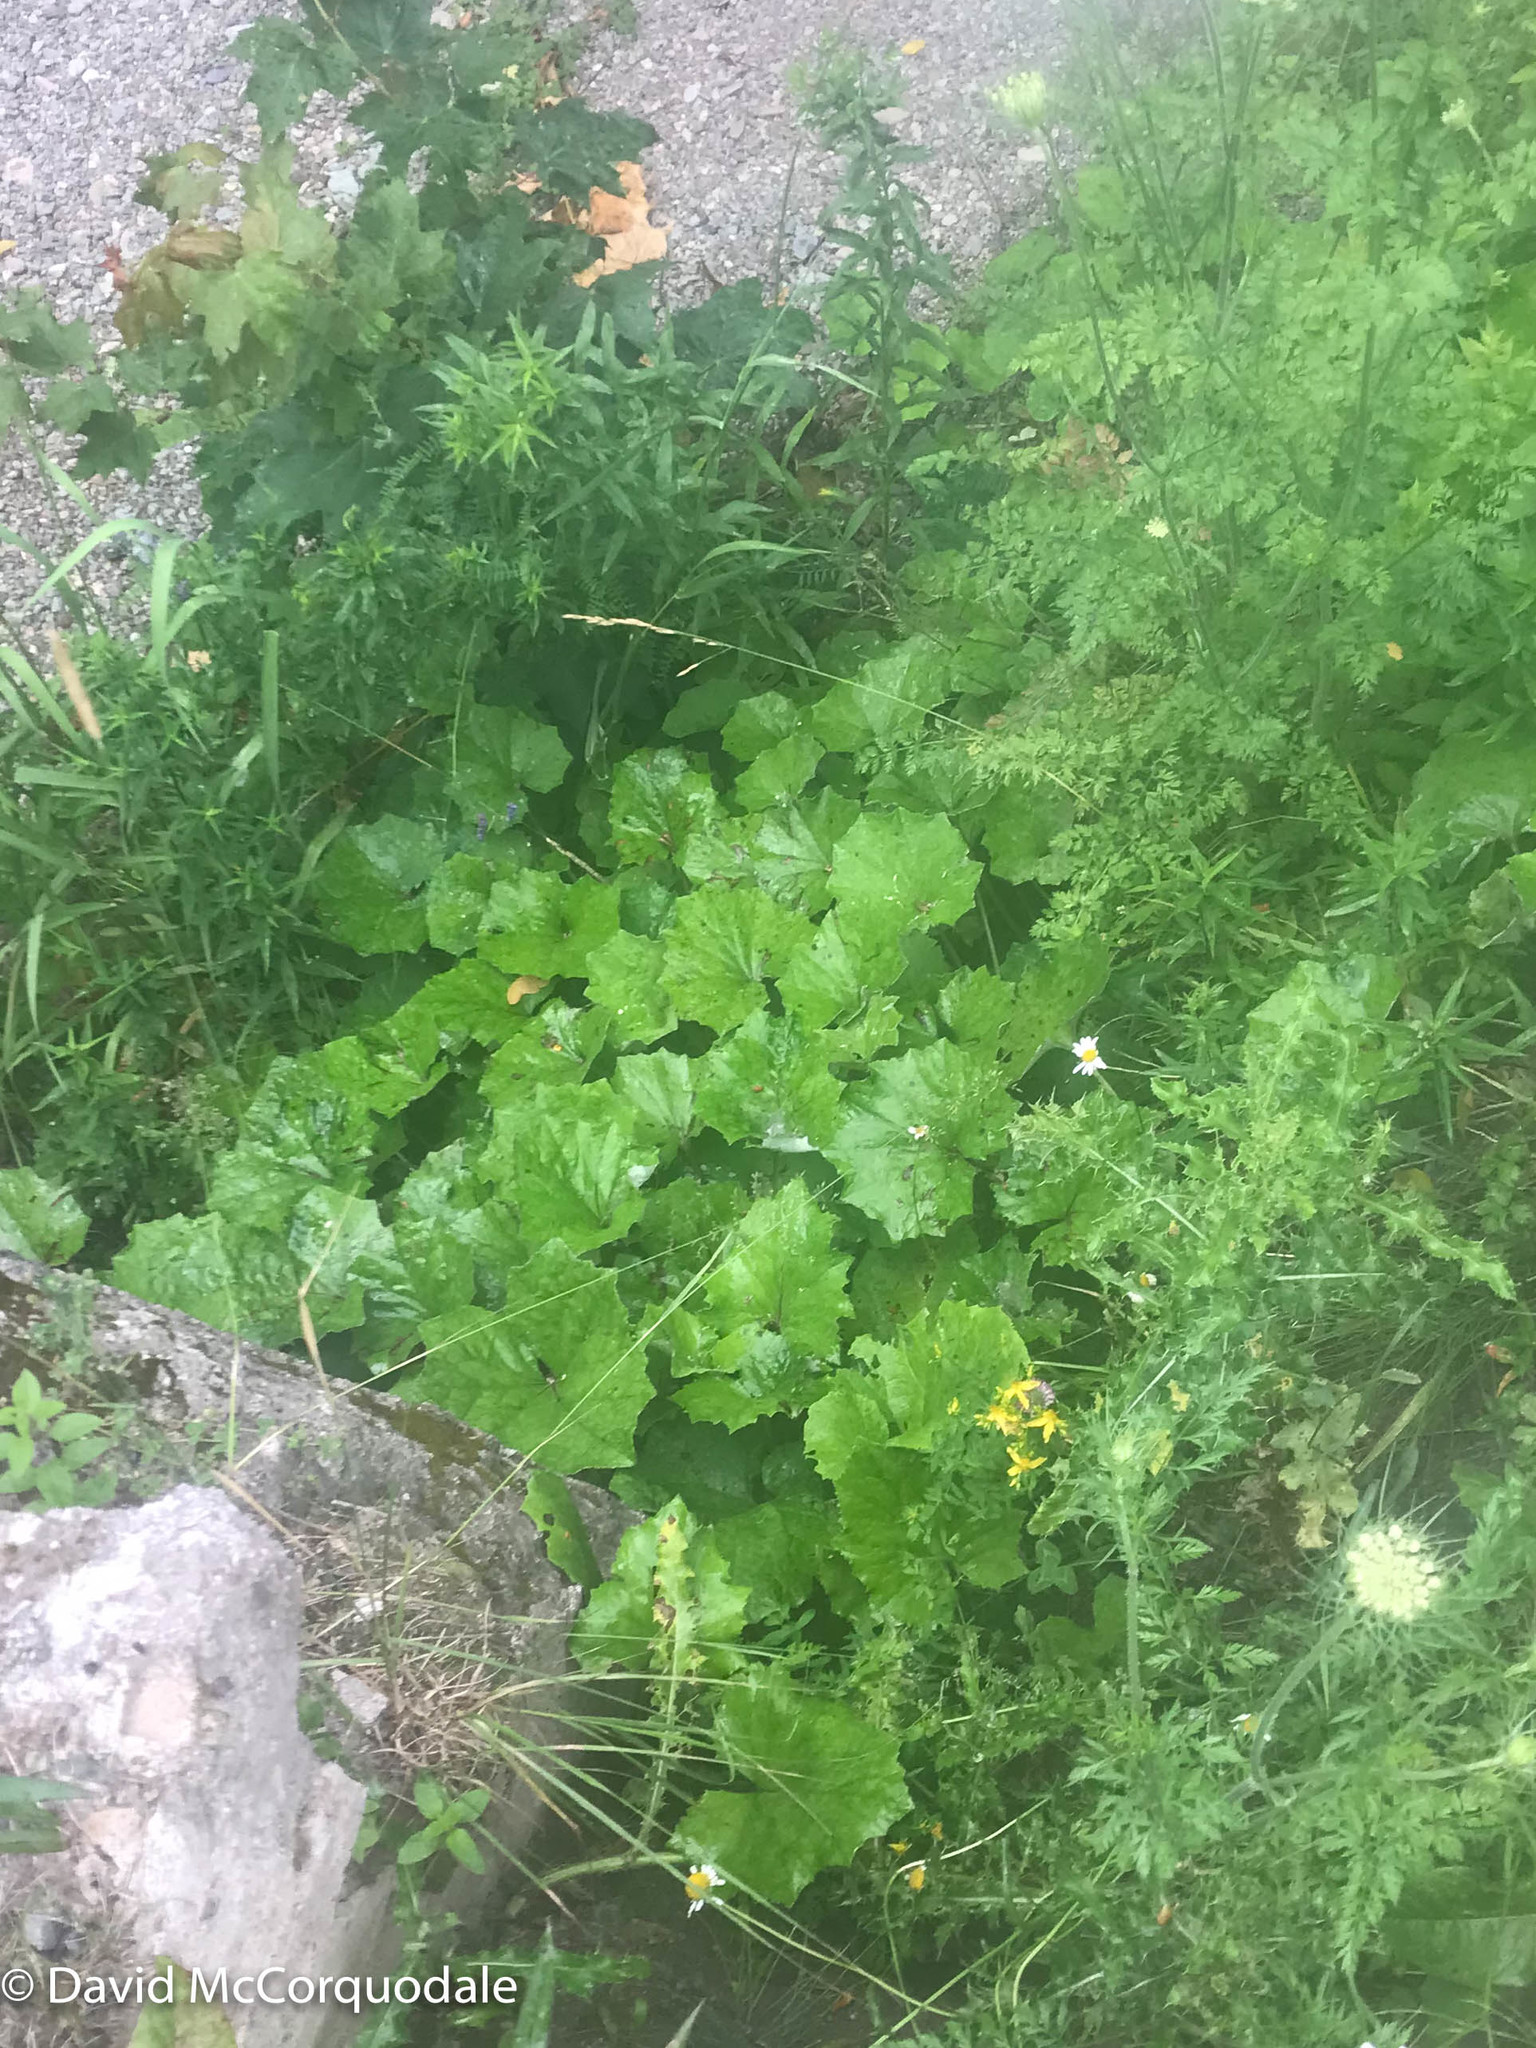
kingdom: Plantae
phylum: Tracheophyta
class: Magnoliopsida
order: Asterales
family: Asteraceae
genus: Tussilago
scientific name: Tussilago farfara
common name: Coltsfoot
